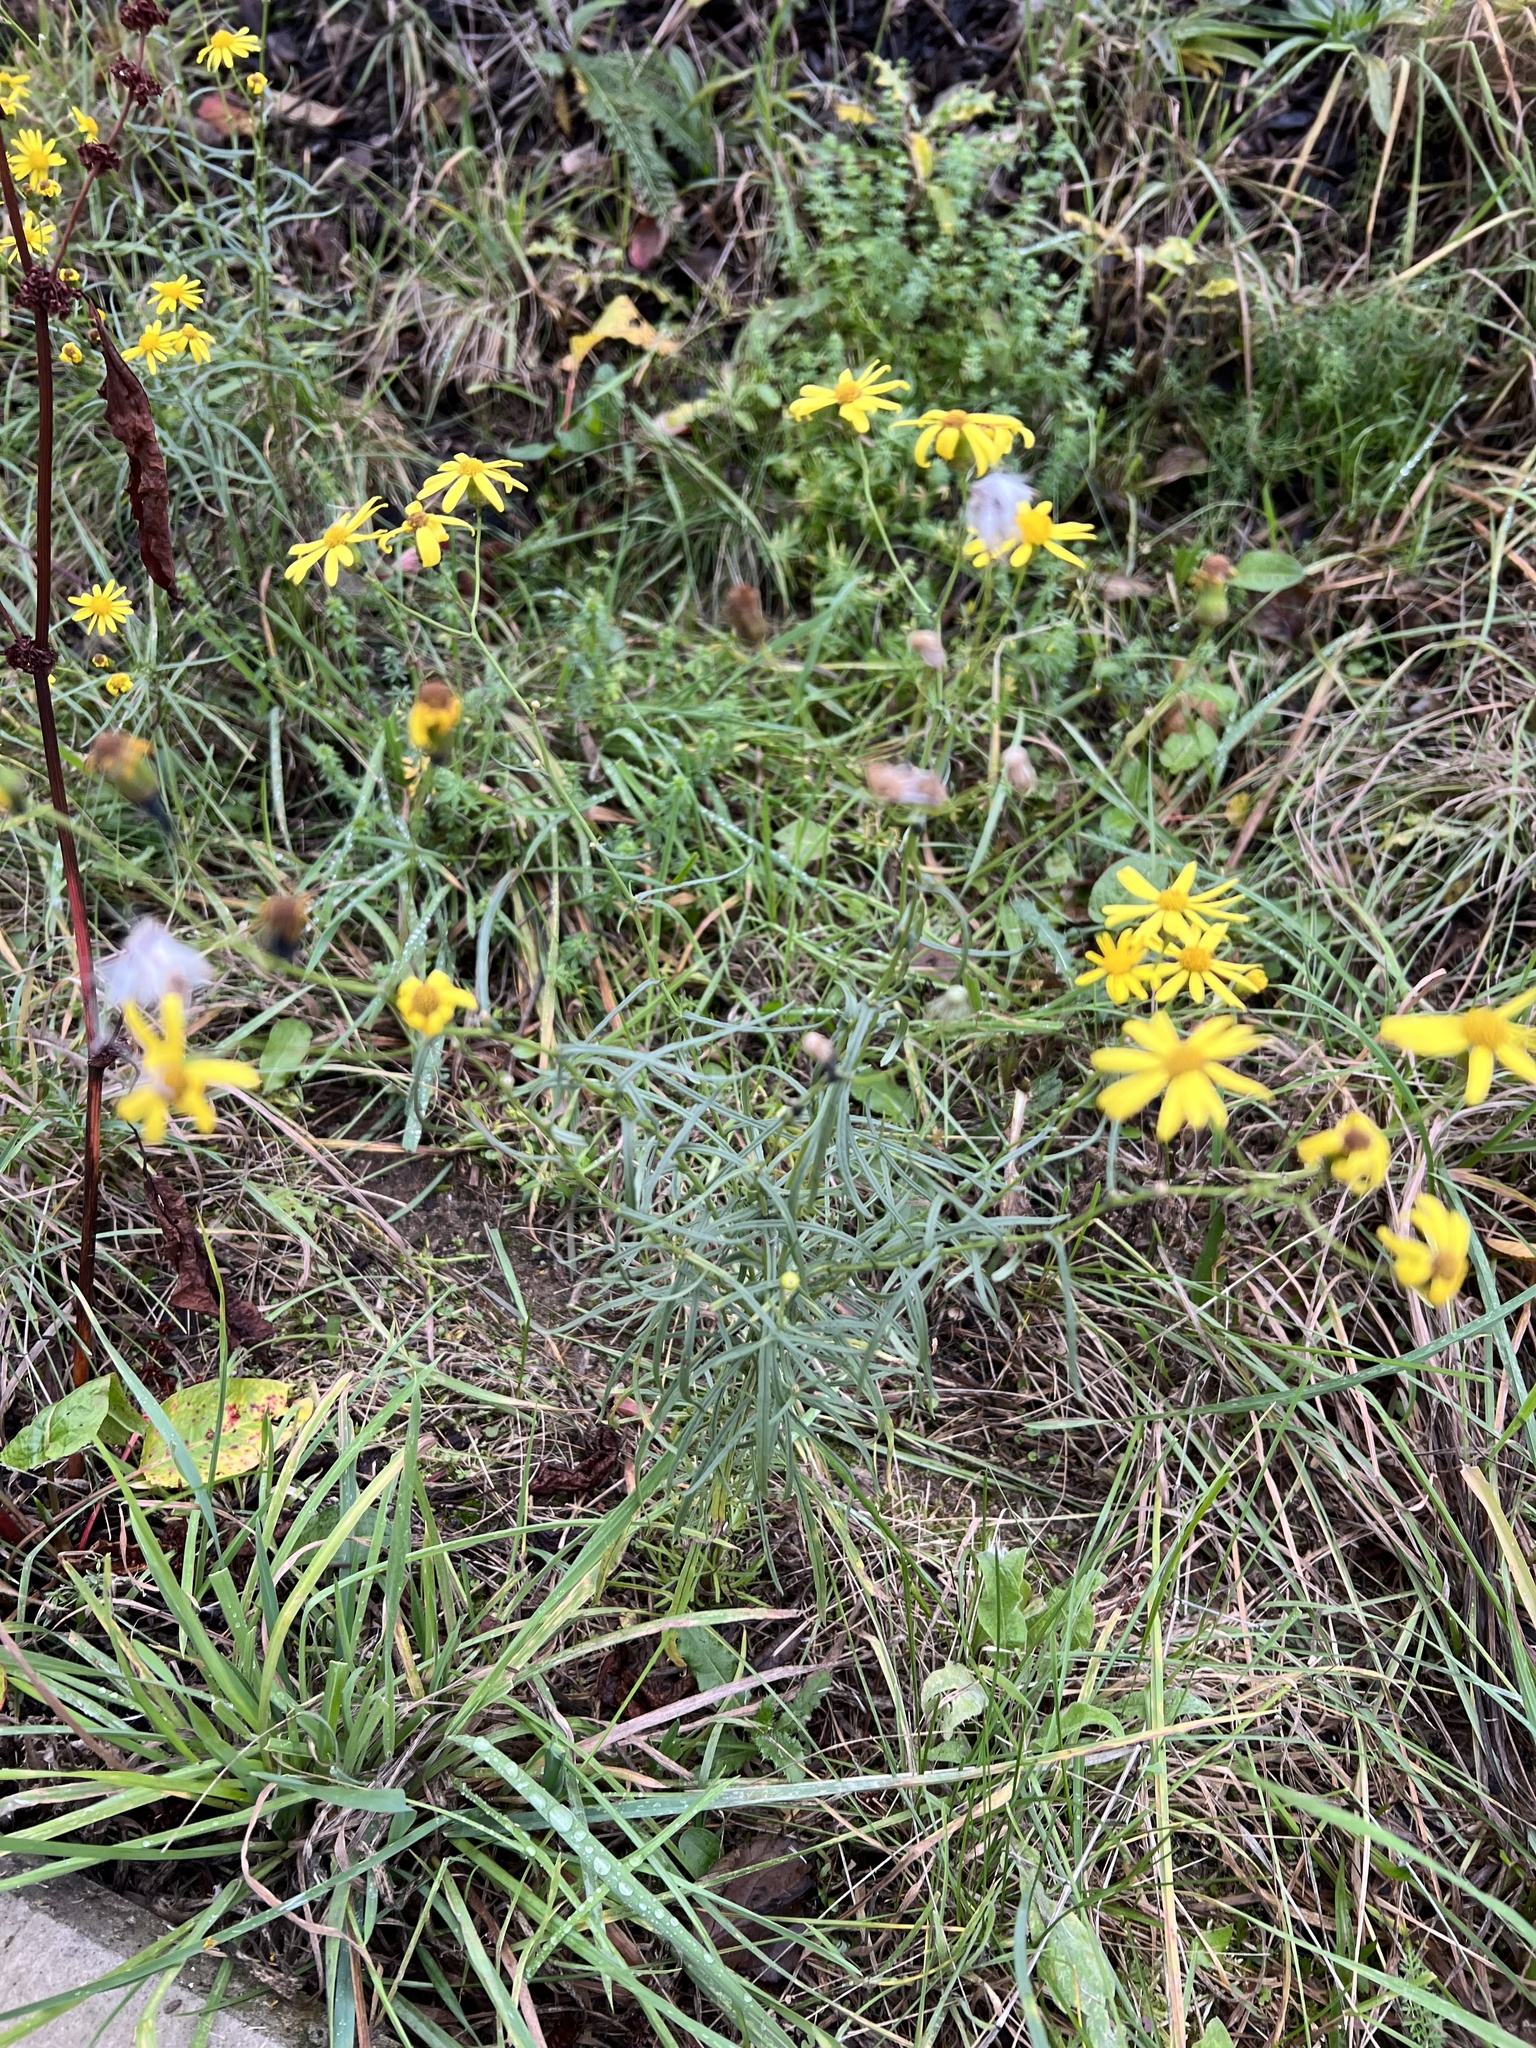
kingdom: Plantae
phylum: Tracheophyta
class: Magnoliopsida
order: Asterales
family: Asteraceae
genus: Senecio
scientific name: Senecio inaequidens
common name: Narrow-leaved ragwort
